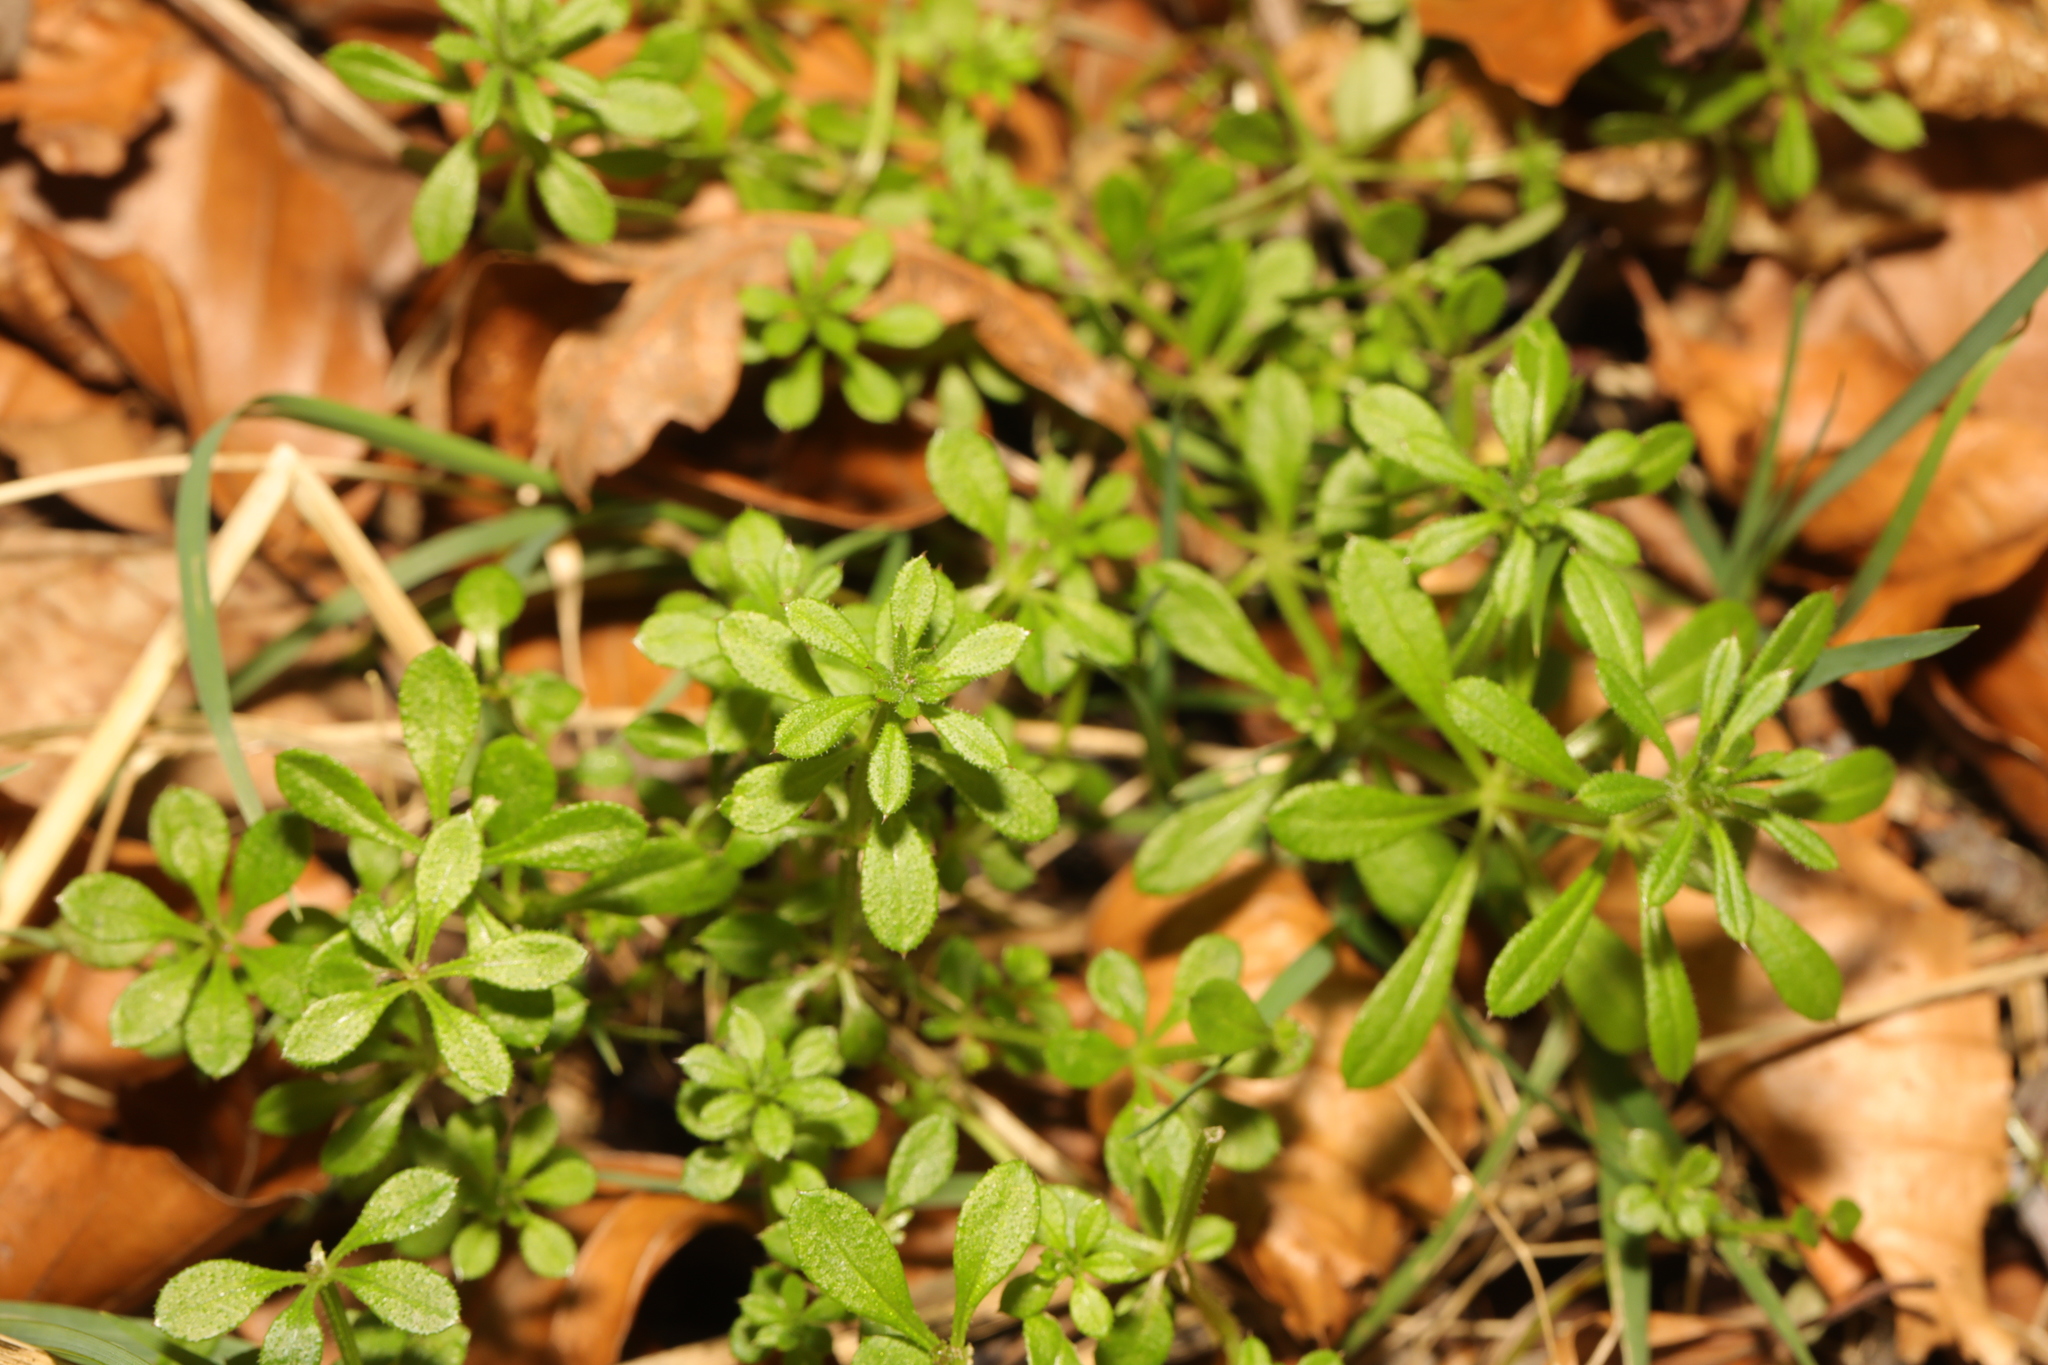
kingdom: Plantae
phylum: Tracheophyta
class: Magnoliopsida
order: Gentianales
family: Rubiaceae
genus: Galium
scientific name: Galium aparine
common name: Cleavers
